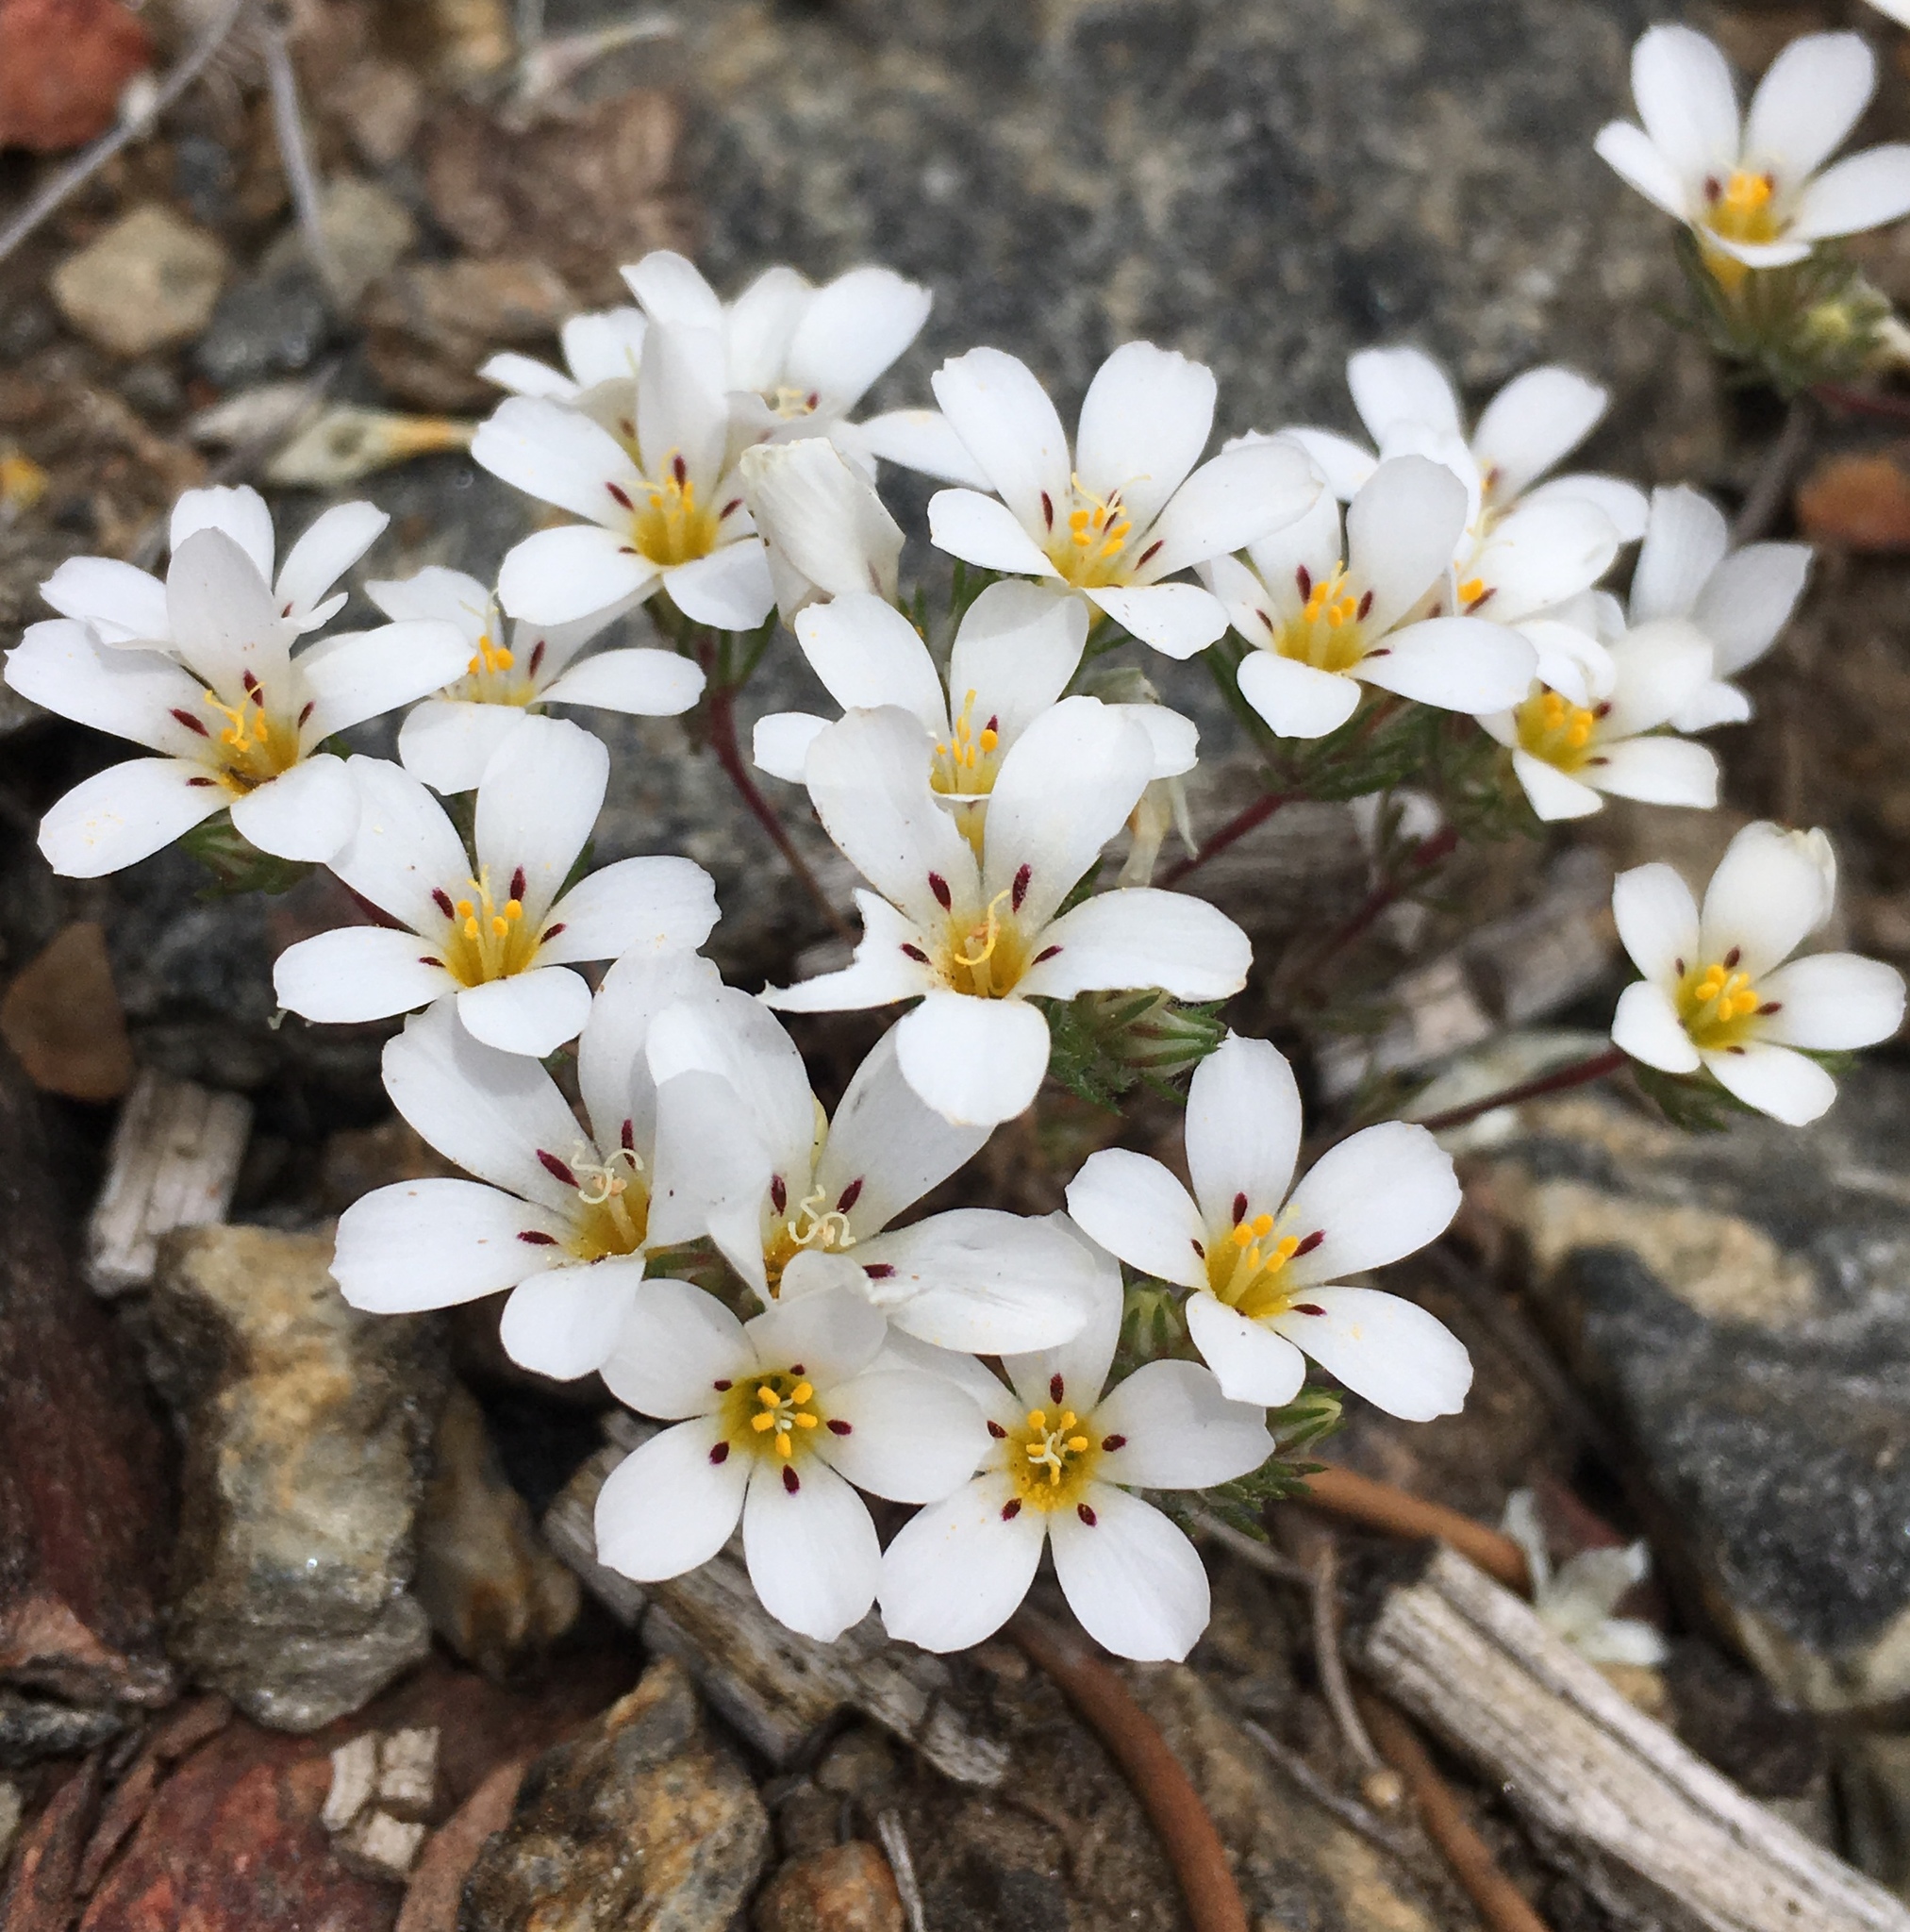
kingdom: Plantae
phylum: Tracheophyta
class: Magnoliopsida
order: Ericales
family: Polemoniaceae
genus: Linanthus
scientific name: Linanthus killipii
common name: Baldwin lake linanthus
